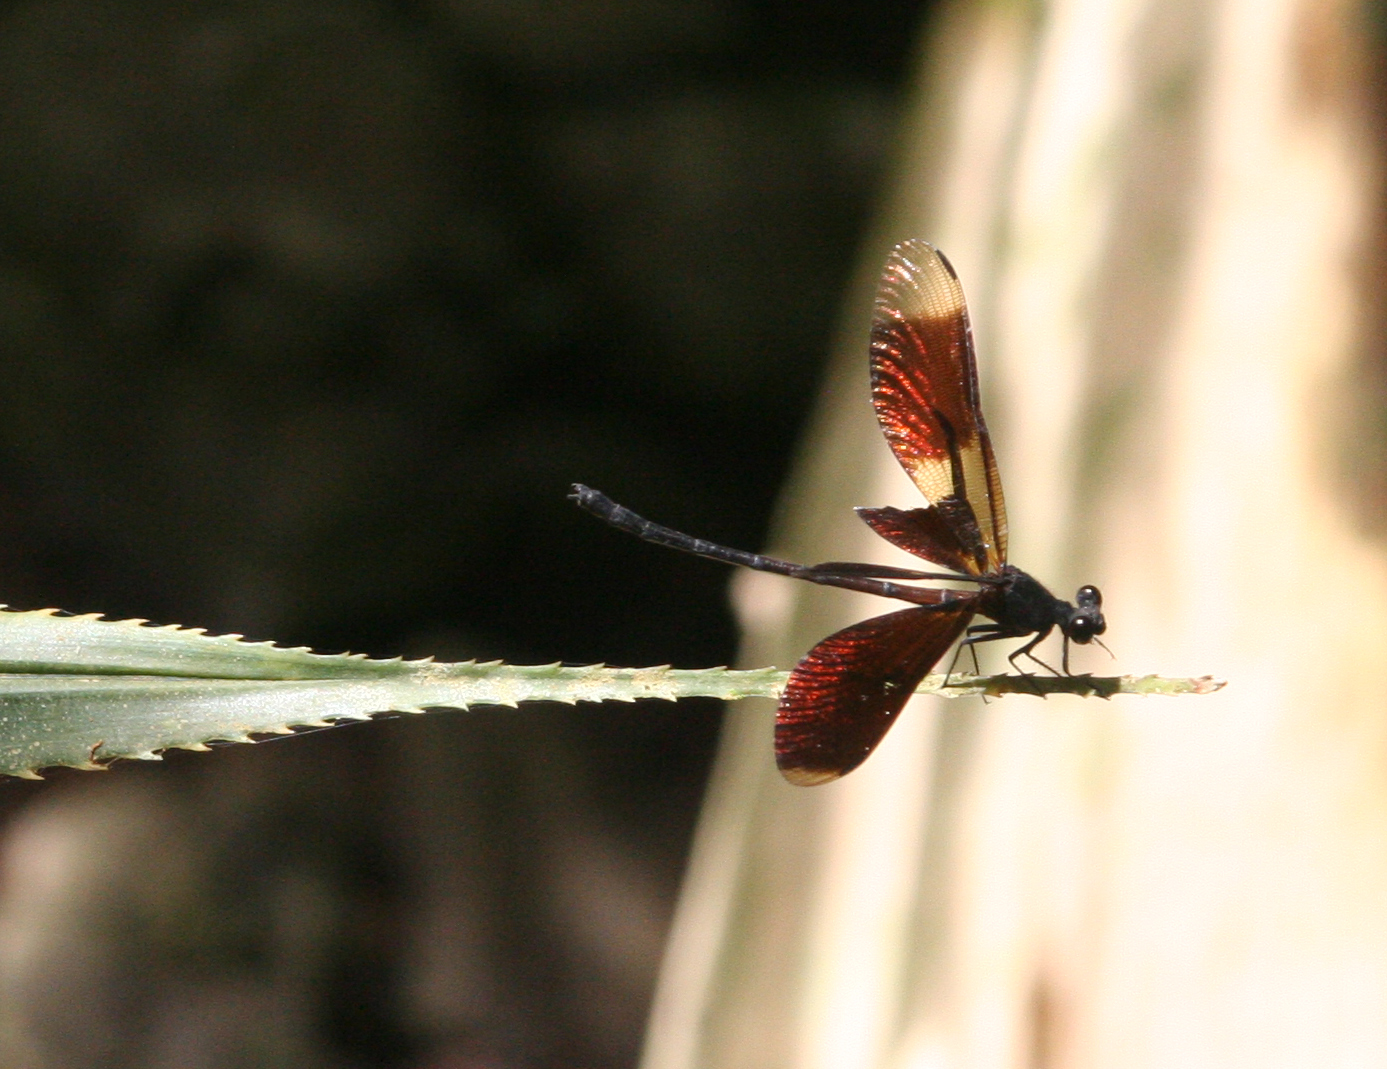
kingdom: Animalia
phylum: Arthropoda
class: Insecta
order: Odonata
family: Euphaeidae
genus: Euphaea
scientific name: Euphaea inouei
